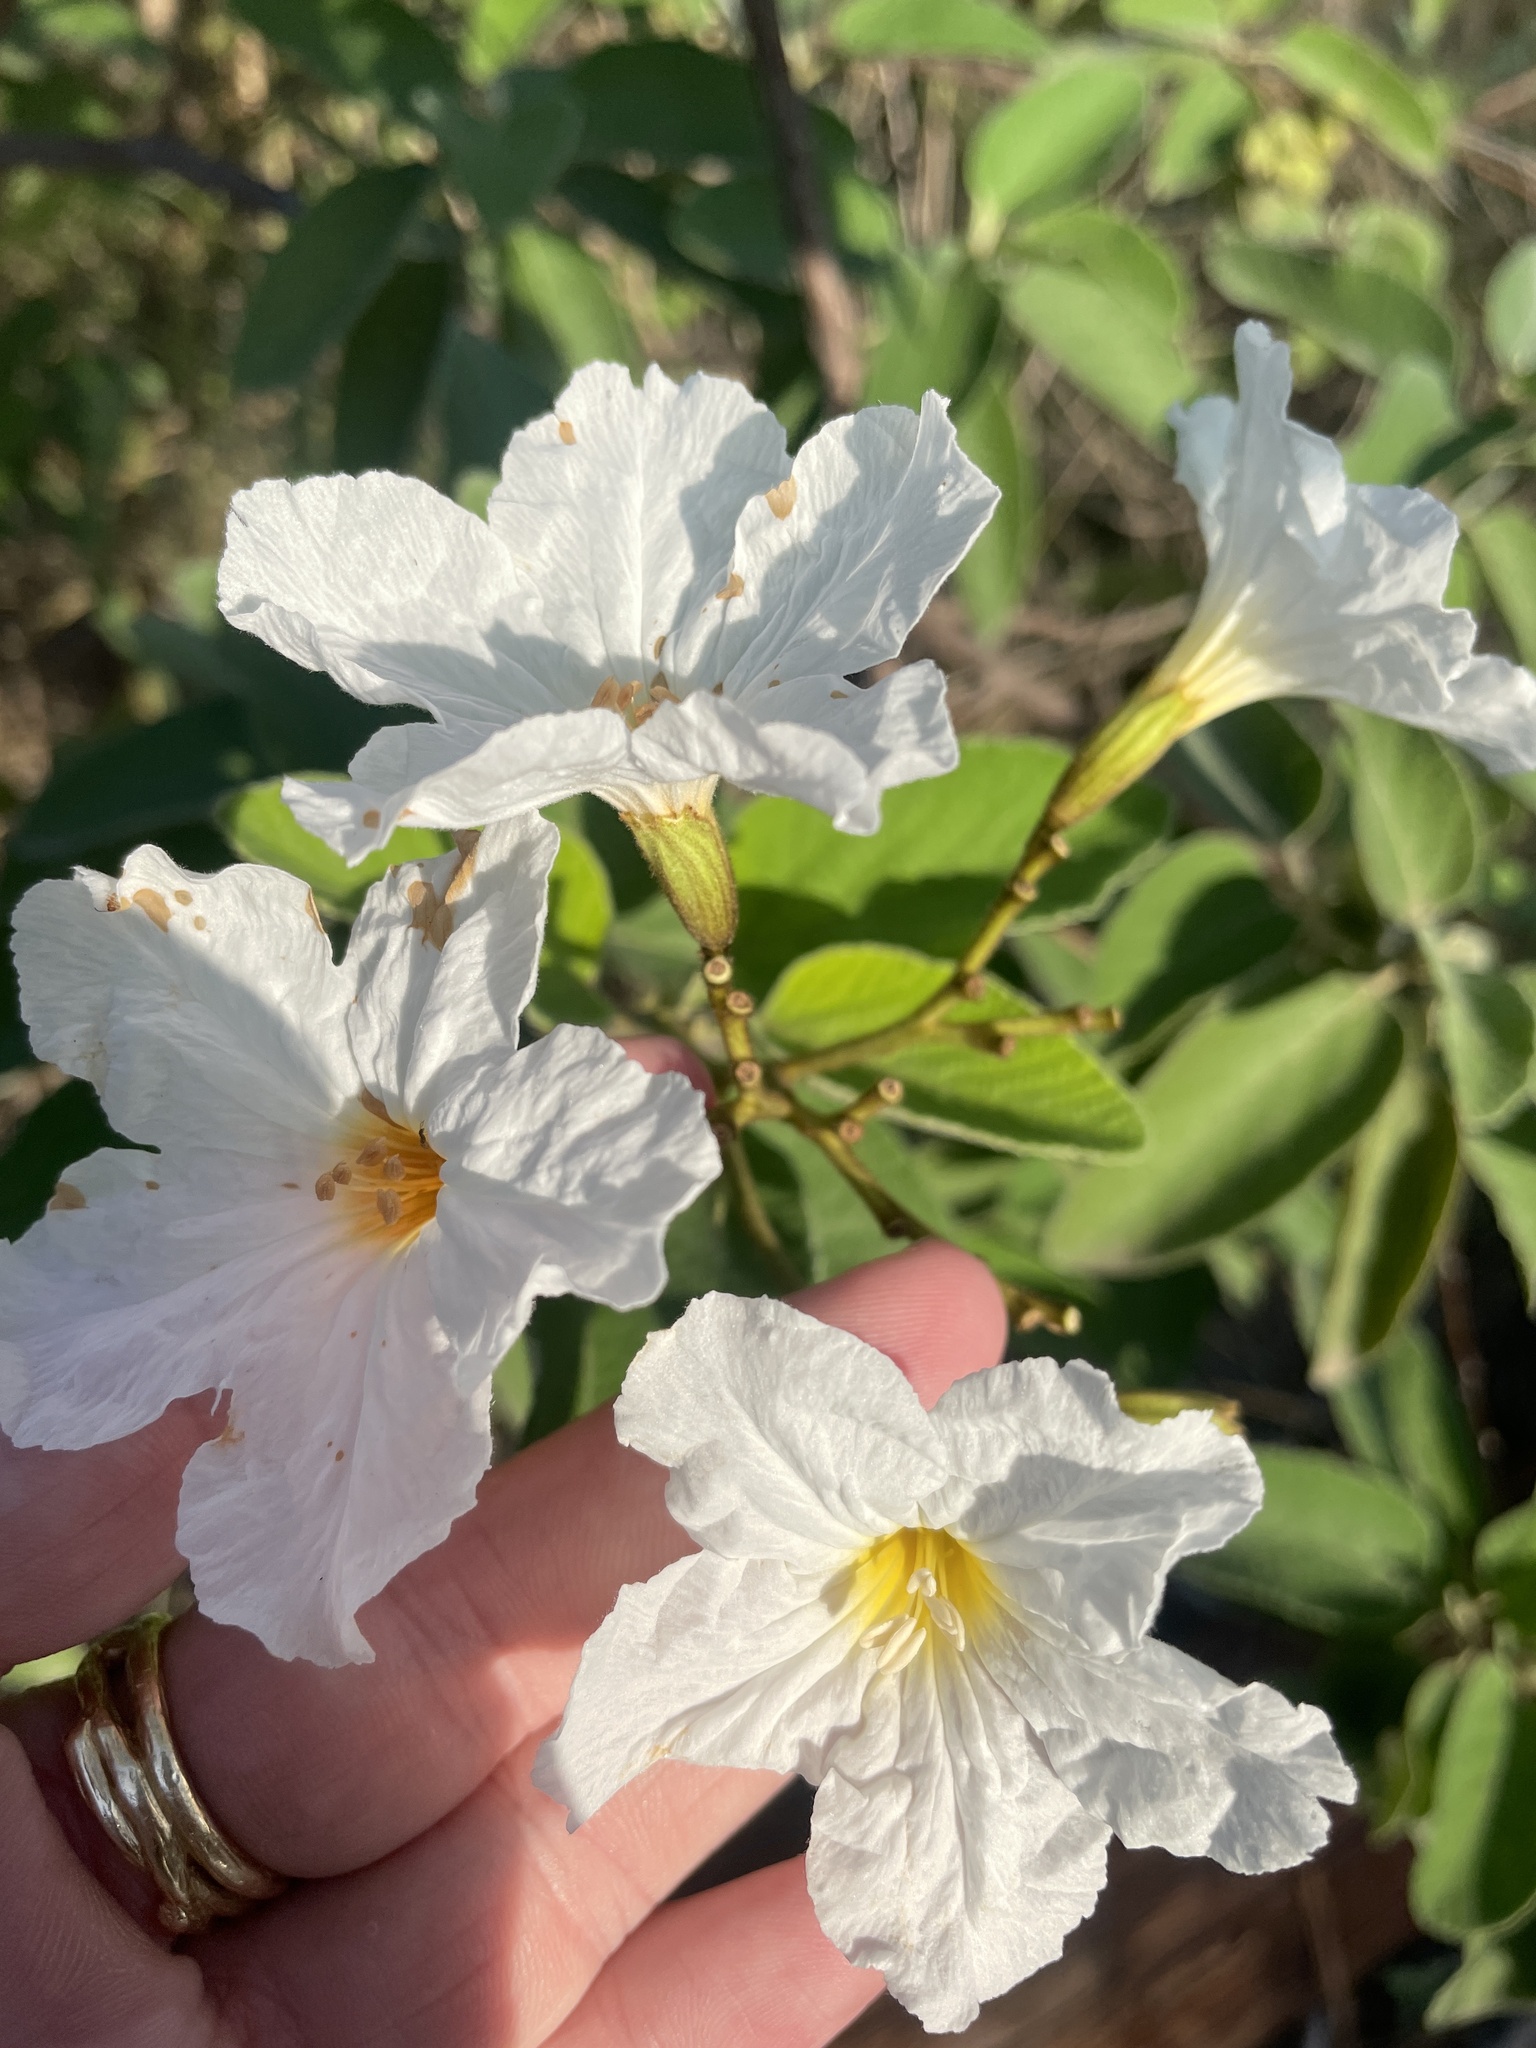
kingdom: Plantae
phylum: Tracheophyta
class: Magnoliopsida
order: Boraginales
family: Cordiaceae
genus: Cordia
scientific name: Cordia boissieri
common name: Mexican-olive
